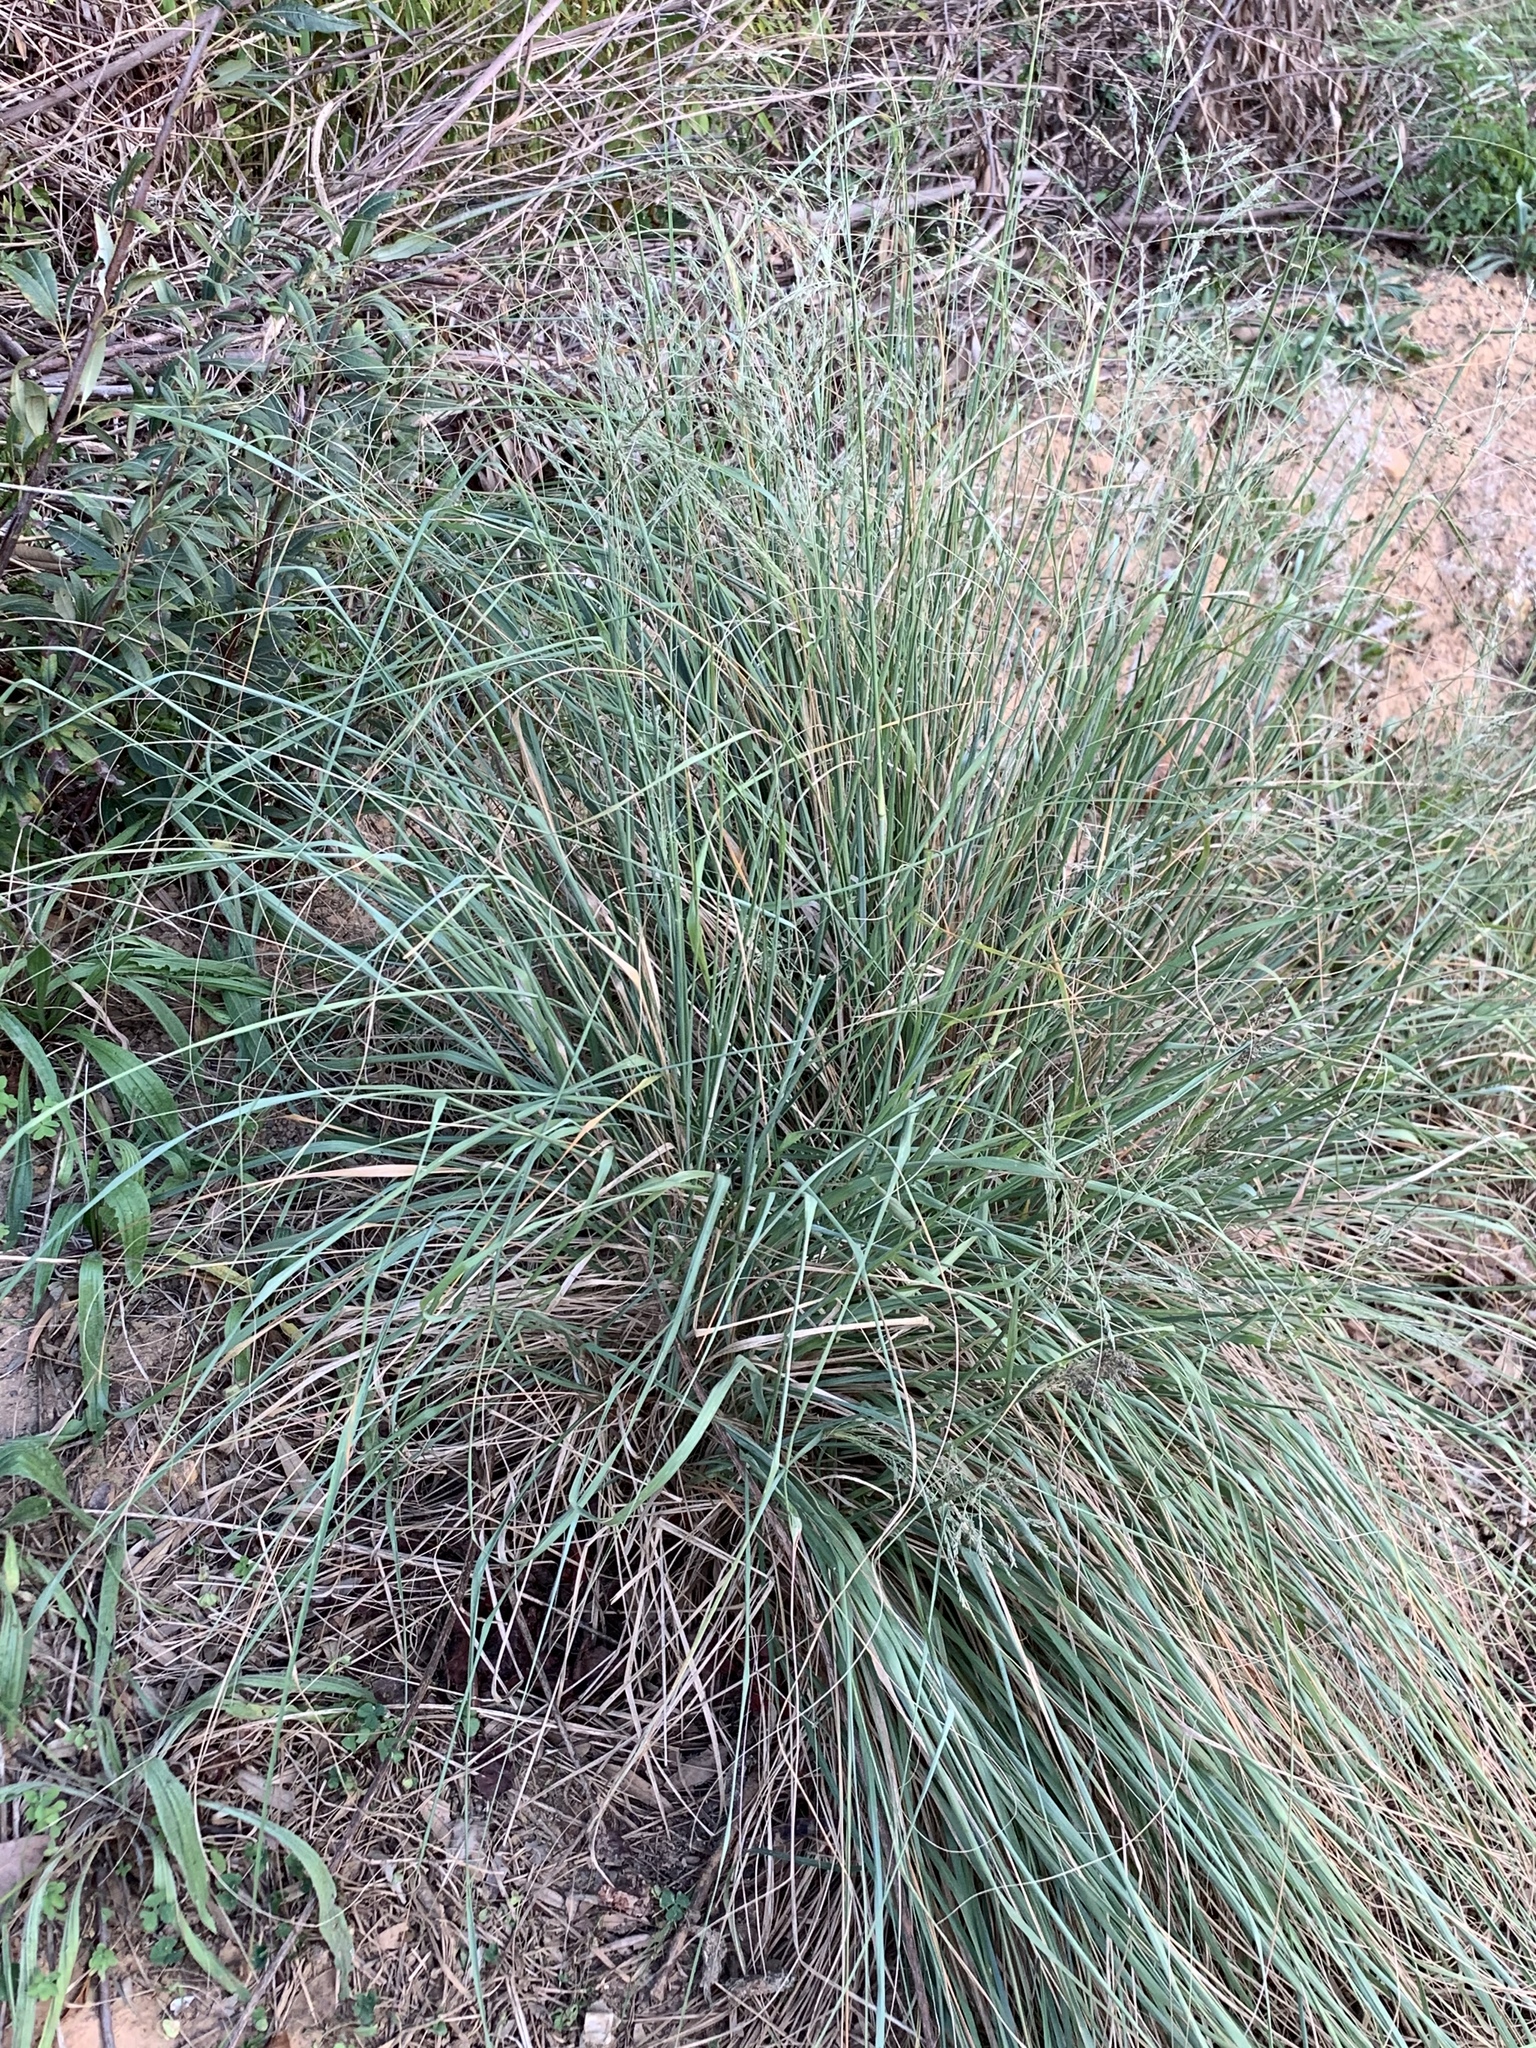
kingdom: Plantae
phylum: Tracheophyta
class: Liliopsida
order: Poales
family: Poaceae
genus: Eragrostis
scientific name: Eragrostis curvula
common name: African love-grass
